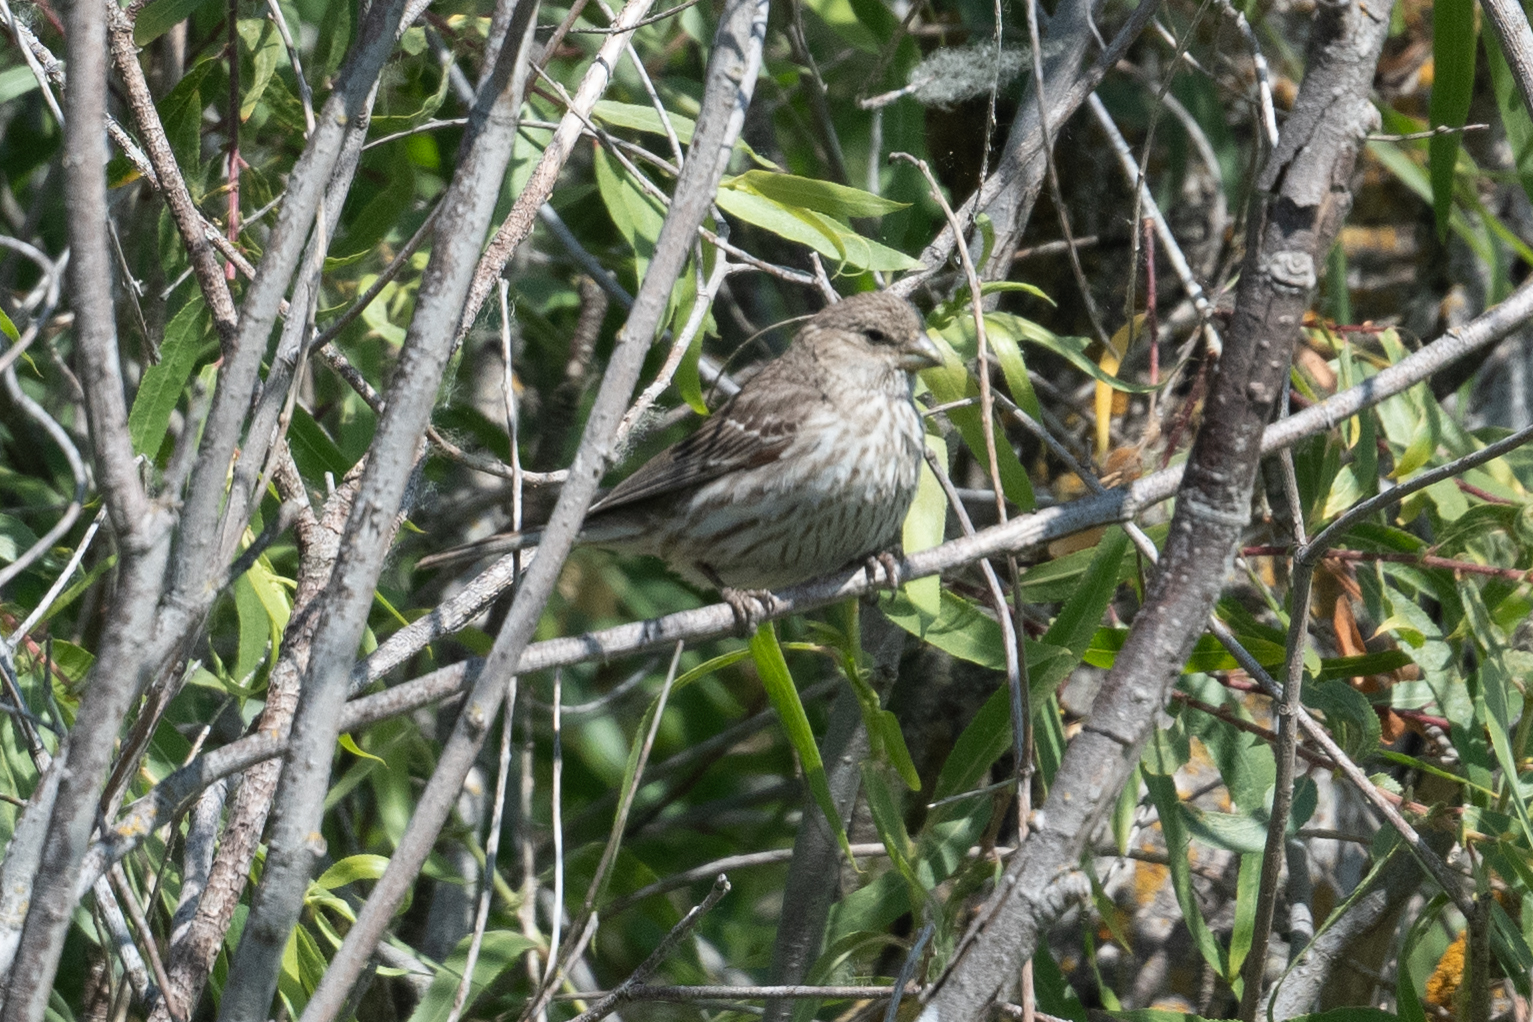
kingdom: Animalia
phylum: Chordata
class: Aves
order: Passeriformes
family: Fringillidae
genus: Haemorhous
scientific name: Haemorhous mexicanus
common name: House finch
